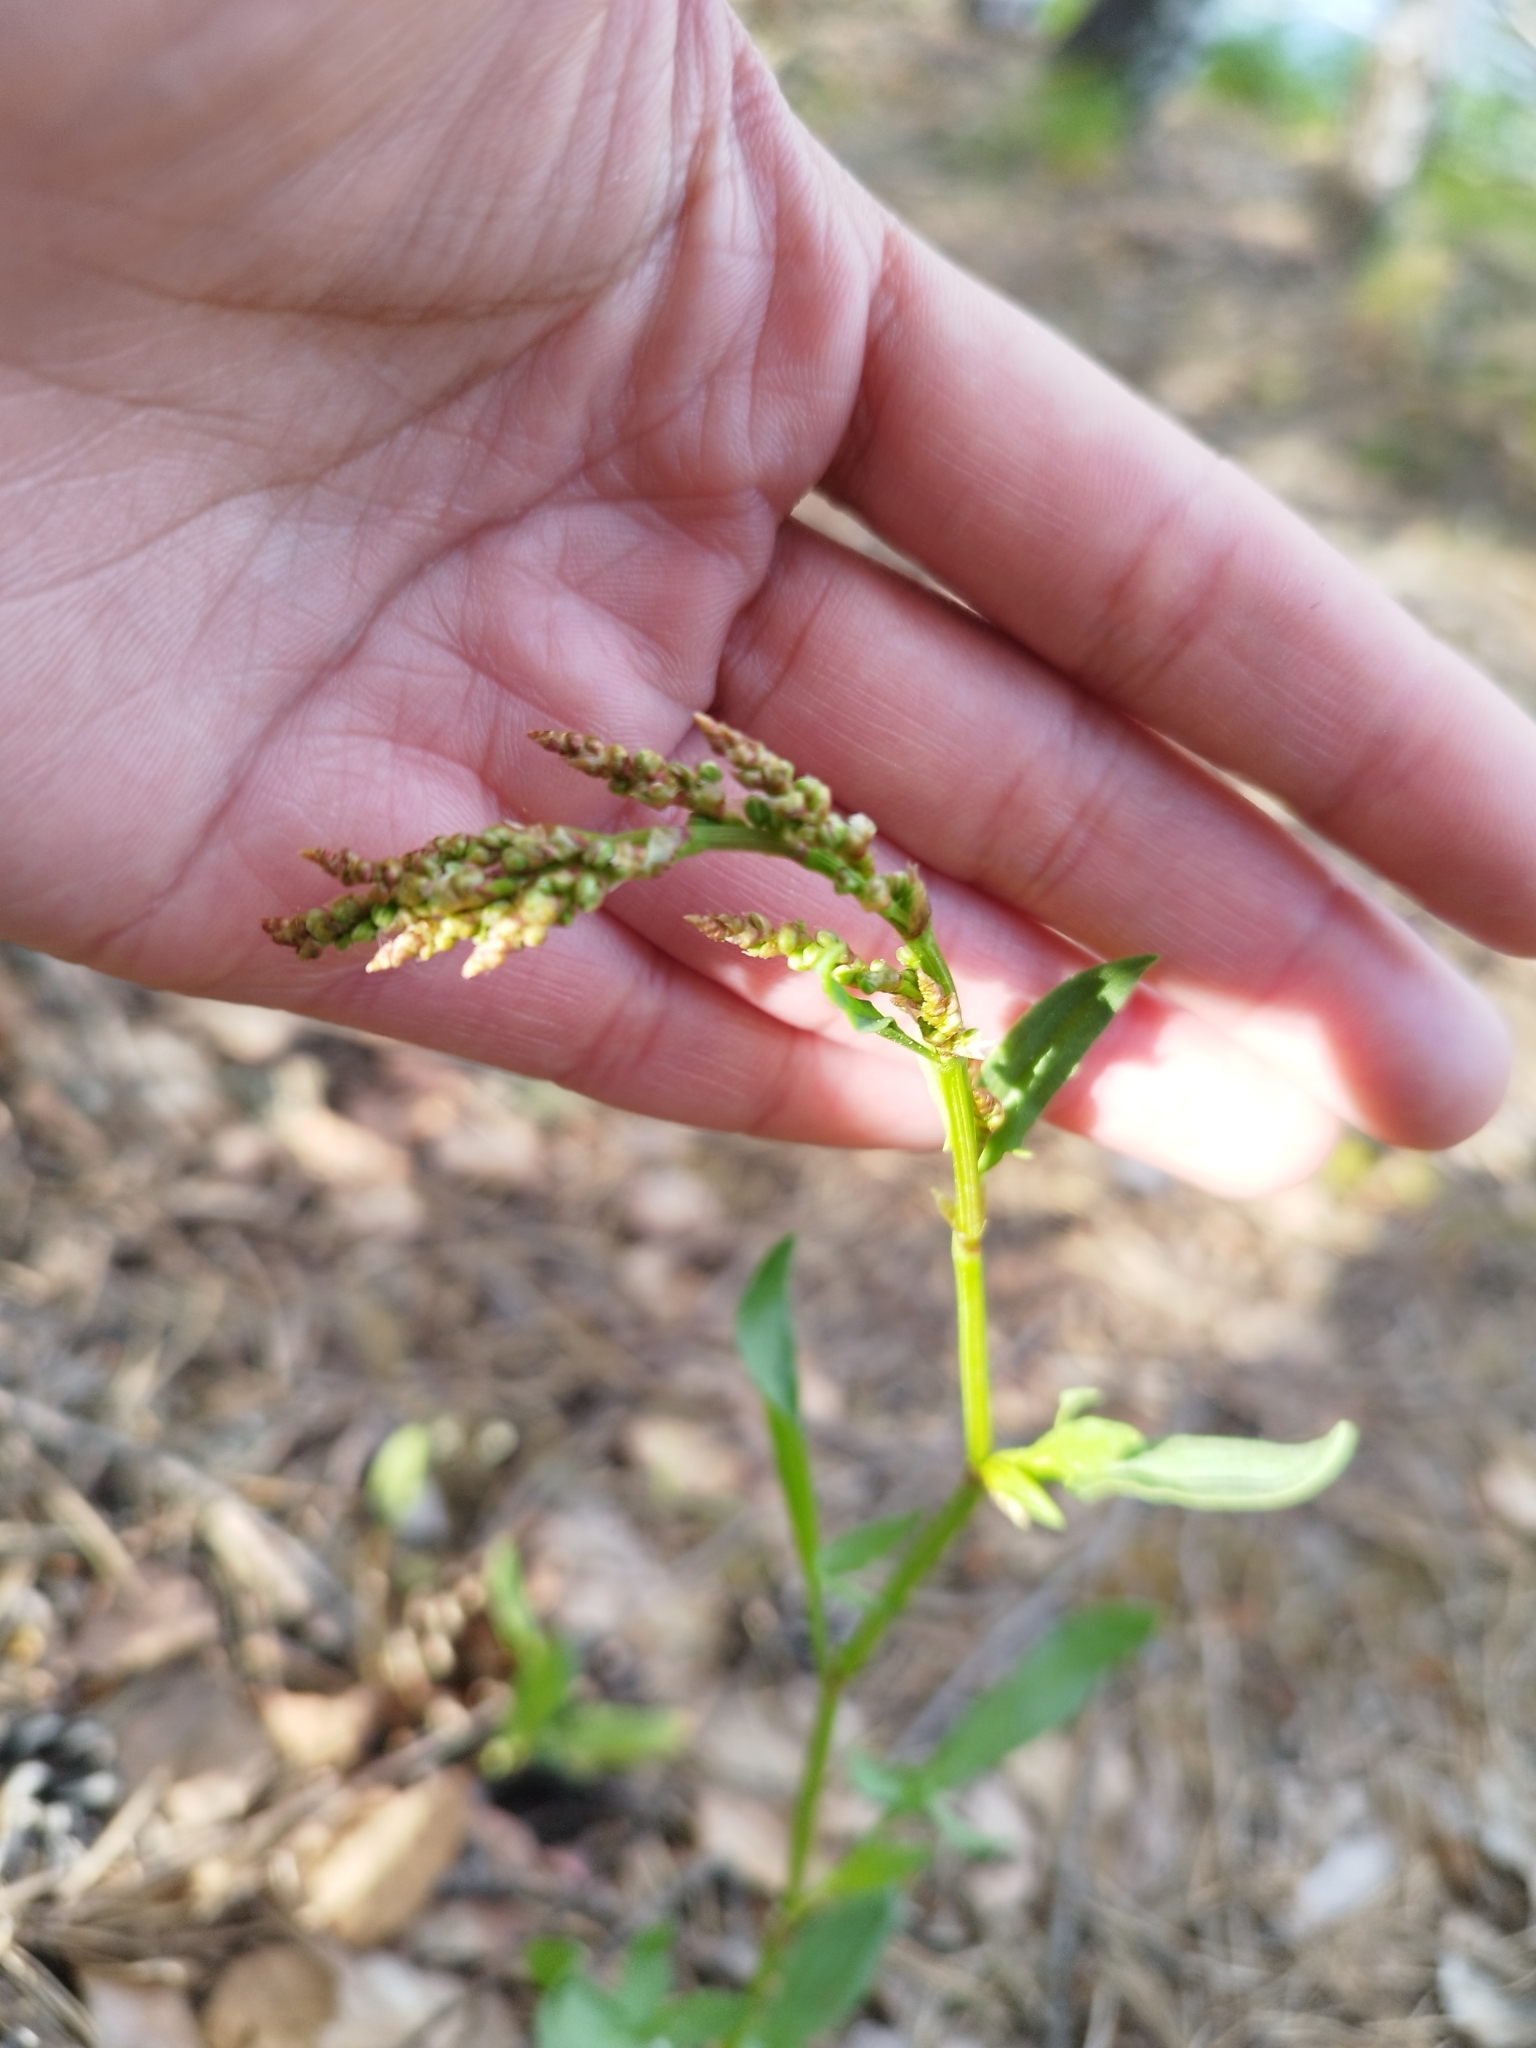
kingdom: Plantae
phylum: Tracheophyta
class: Magnoliopsida
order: Caryophyllales
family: Polygonaceae
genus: Rumex
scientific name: Rumex acetosella
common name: Common sheep sorrel
